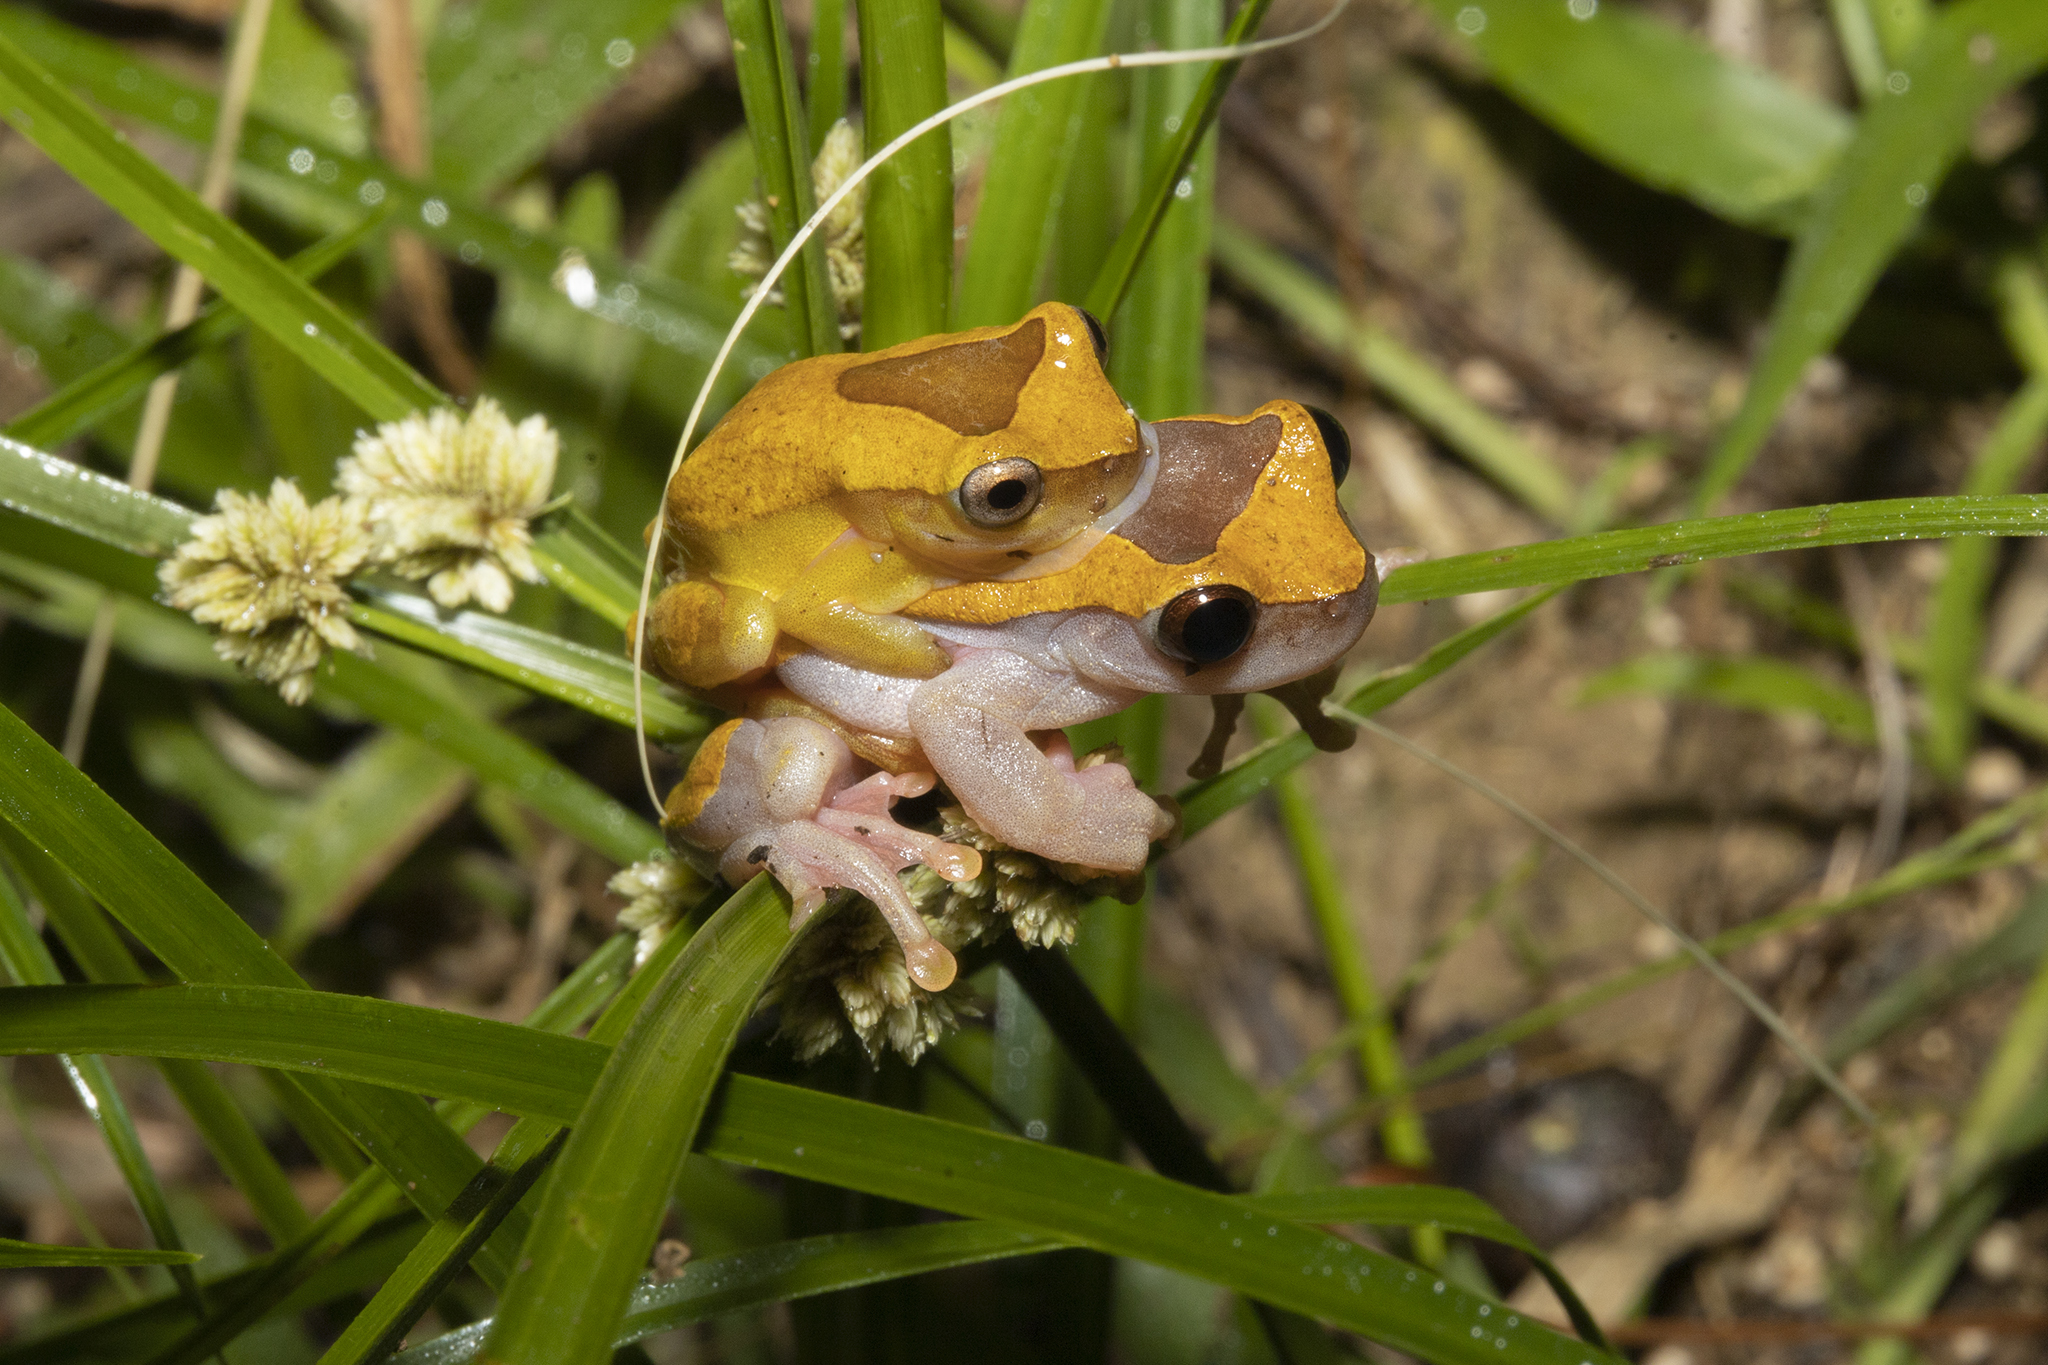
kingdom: Animalia
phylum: Chordata
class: Amphibia
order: Anura
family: Hylidae
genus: Dendropsophus
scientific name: Dendropsophus triangulum
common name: Triangle treefrog
